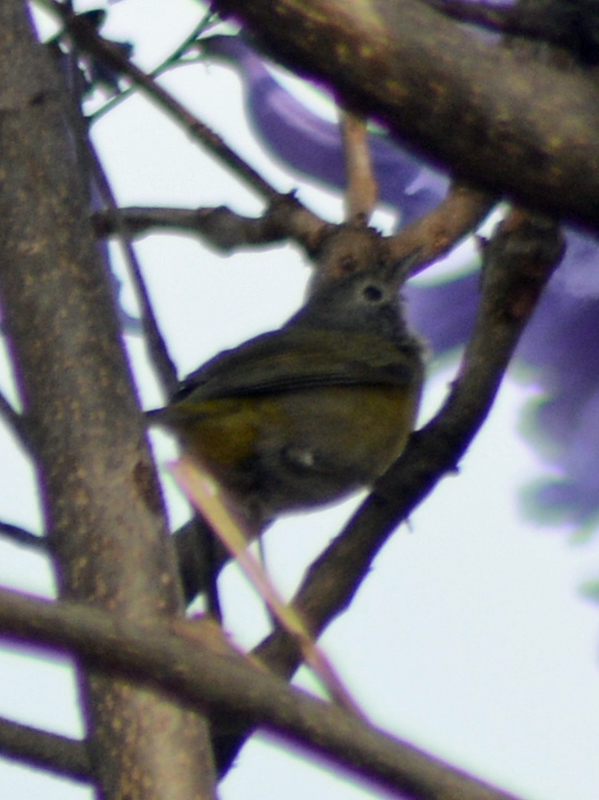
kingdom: Animalia
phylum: Chordata
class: Aves
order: Passeriformes
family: Parulidae
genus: Leiothlypis
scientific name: Leiothlypis ruficapilla
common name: Nashville warbler
